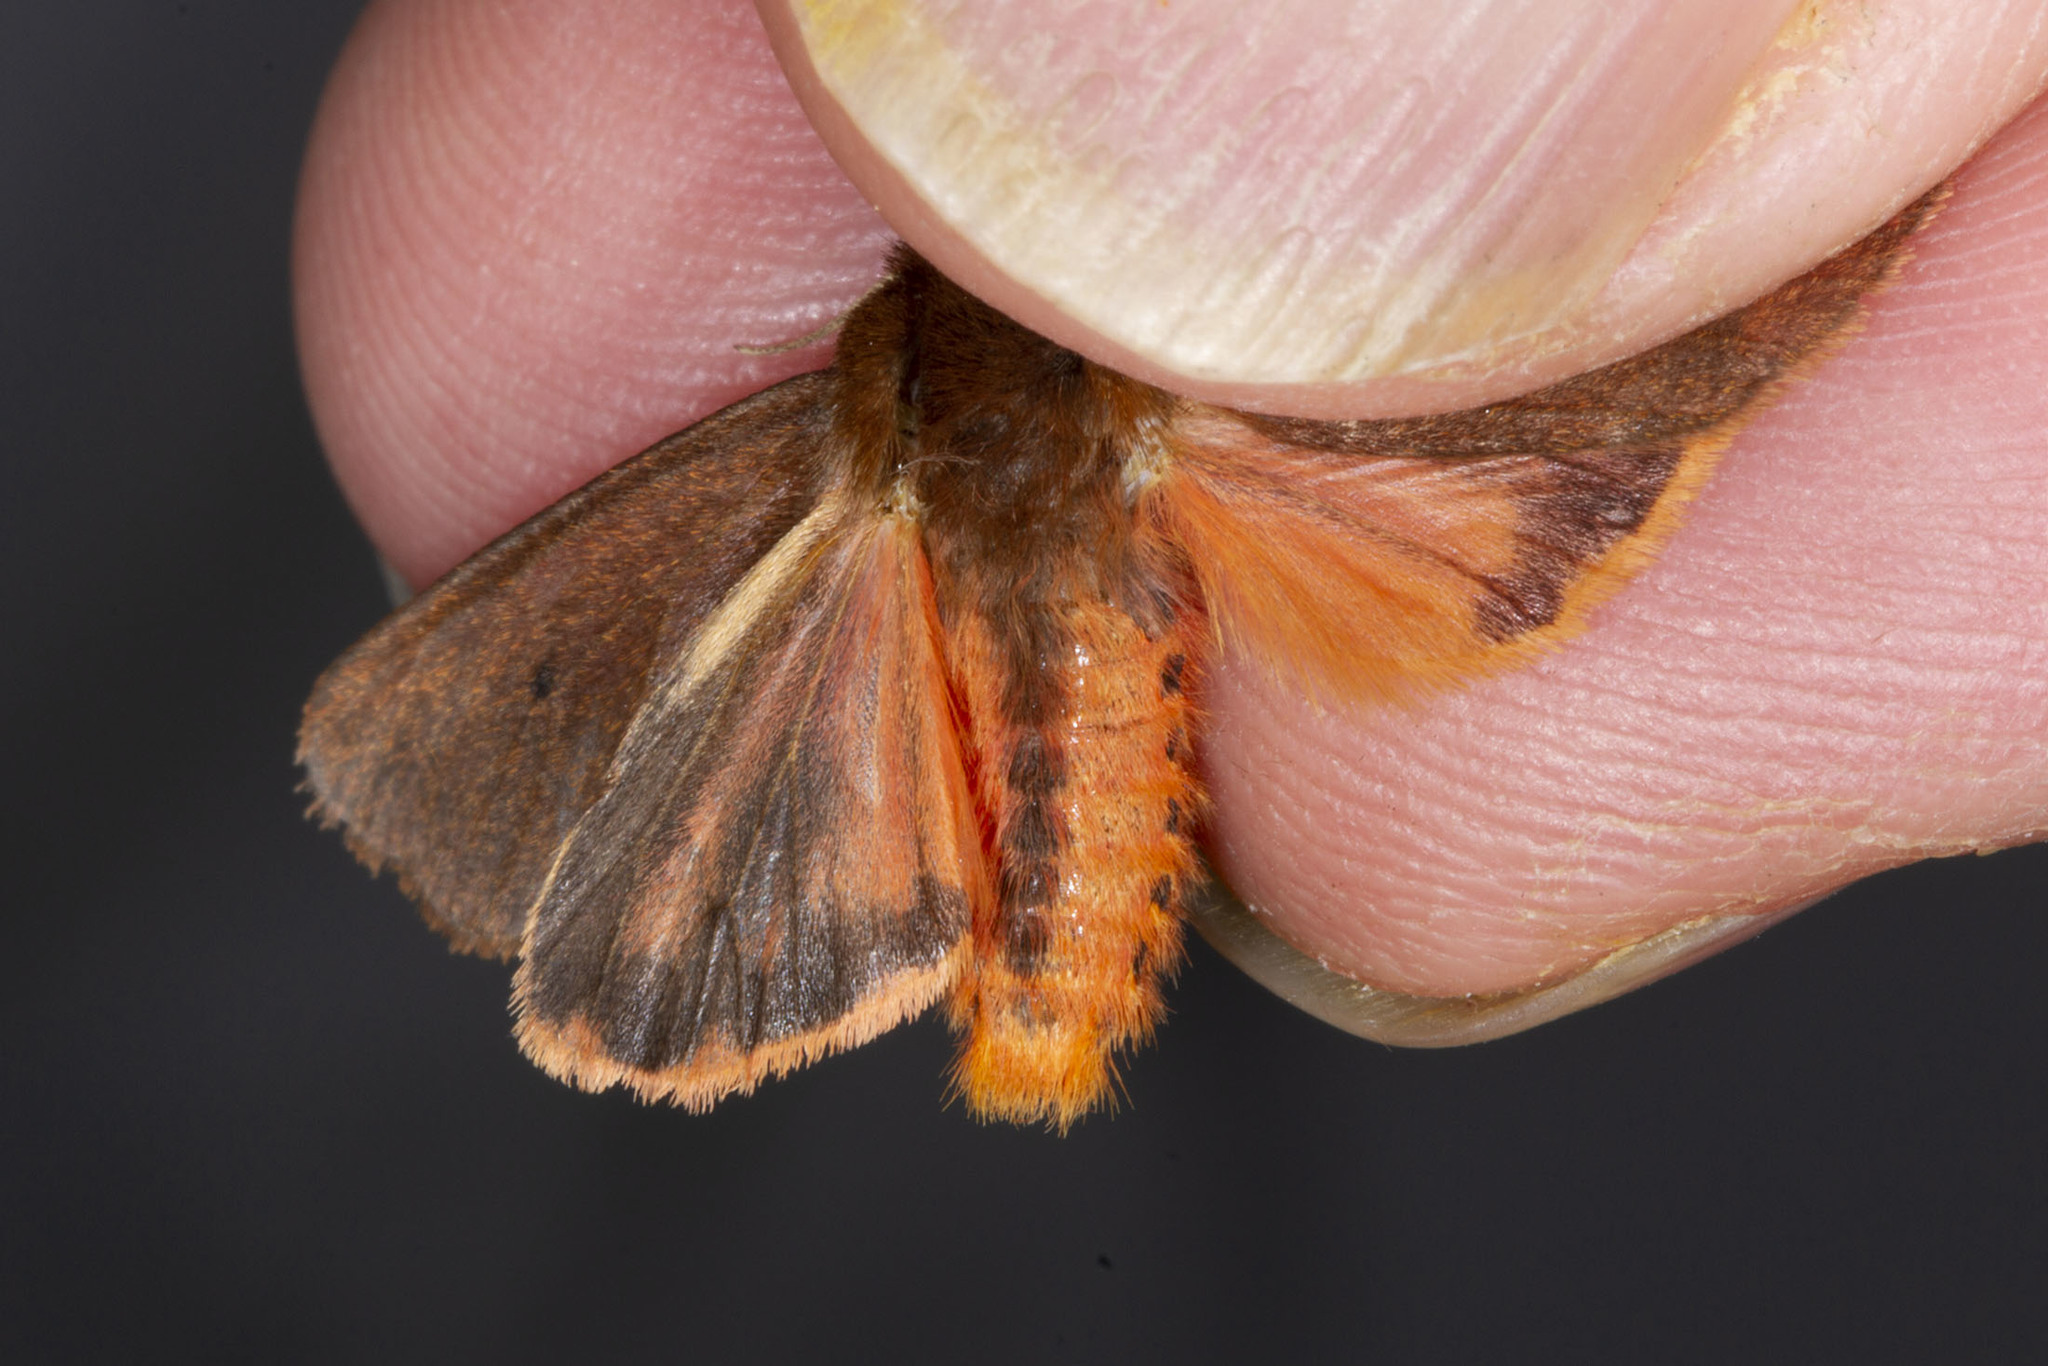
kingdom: Animalia
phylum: Arthropoda
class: Insecta
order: Lepidoptera
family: Erebidae
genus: Phragmatobia
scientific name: Phragmatobia fuliginosa
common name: Ruby tiger
